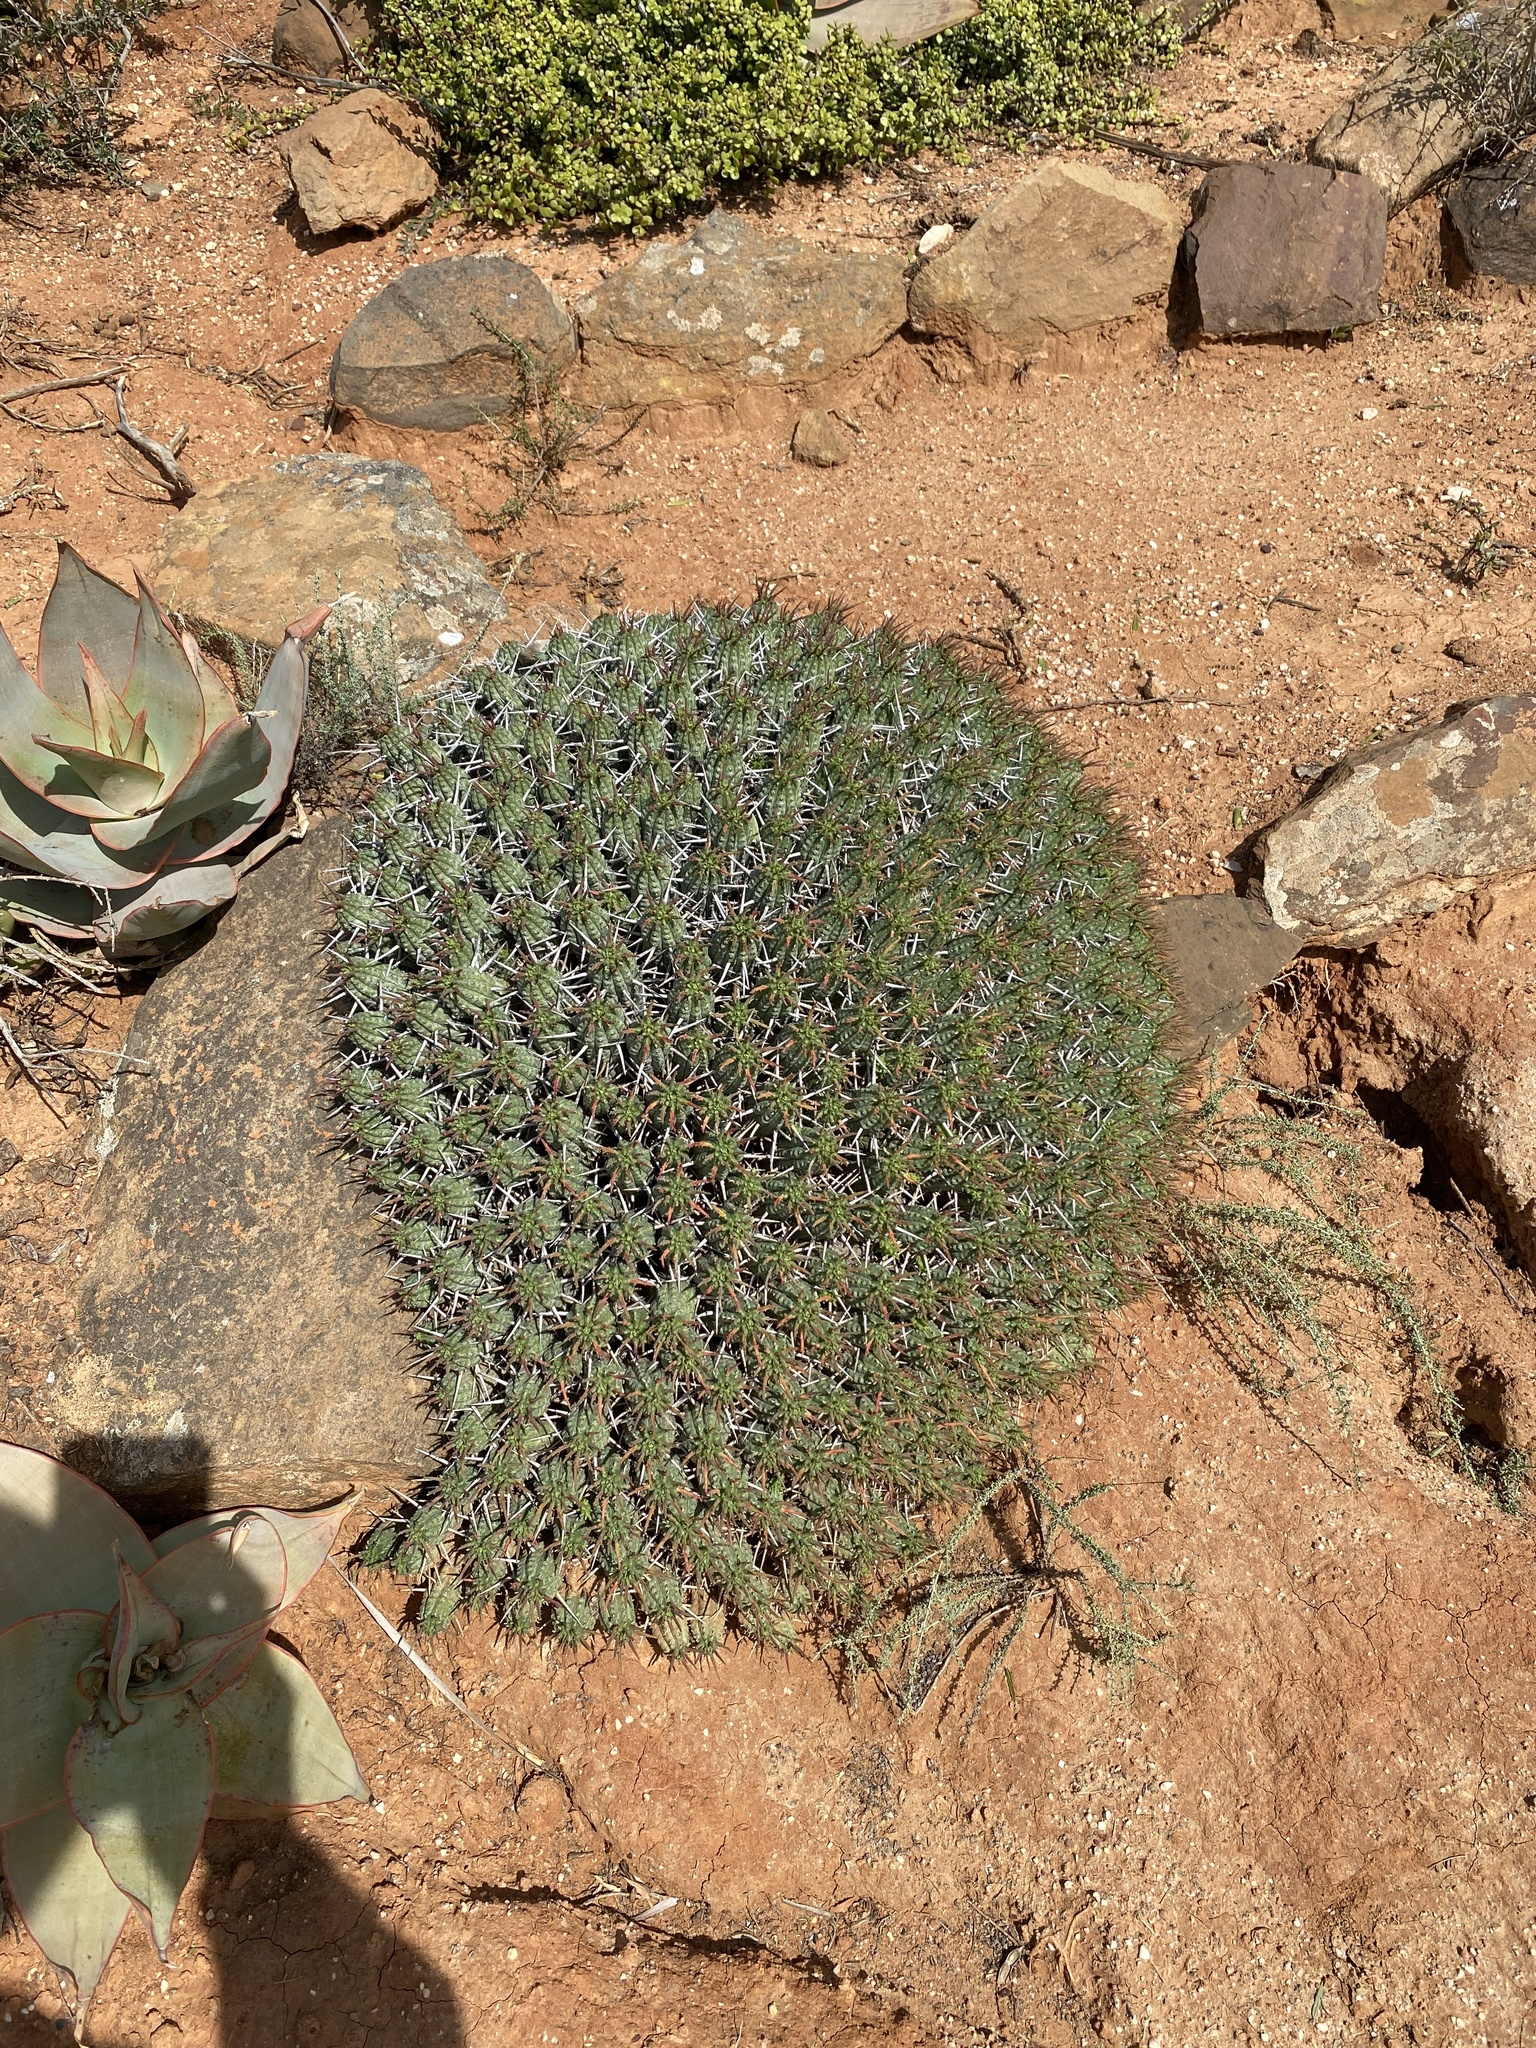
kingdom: Plantae
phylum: Tracheophyta
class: Magnoliopsida
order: Malpighiales
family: Euphorbiaceae
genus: Euphorbia
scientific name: Euphorbia mammillaris
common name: Corkscrew
